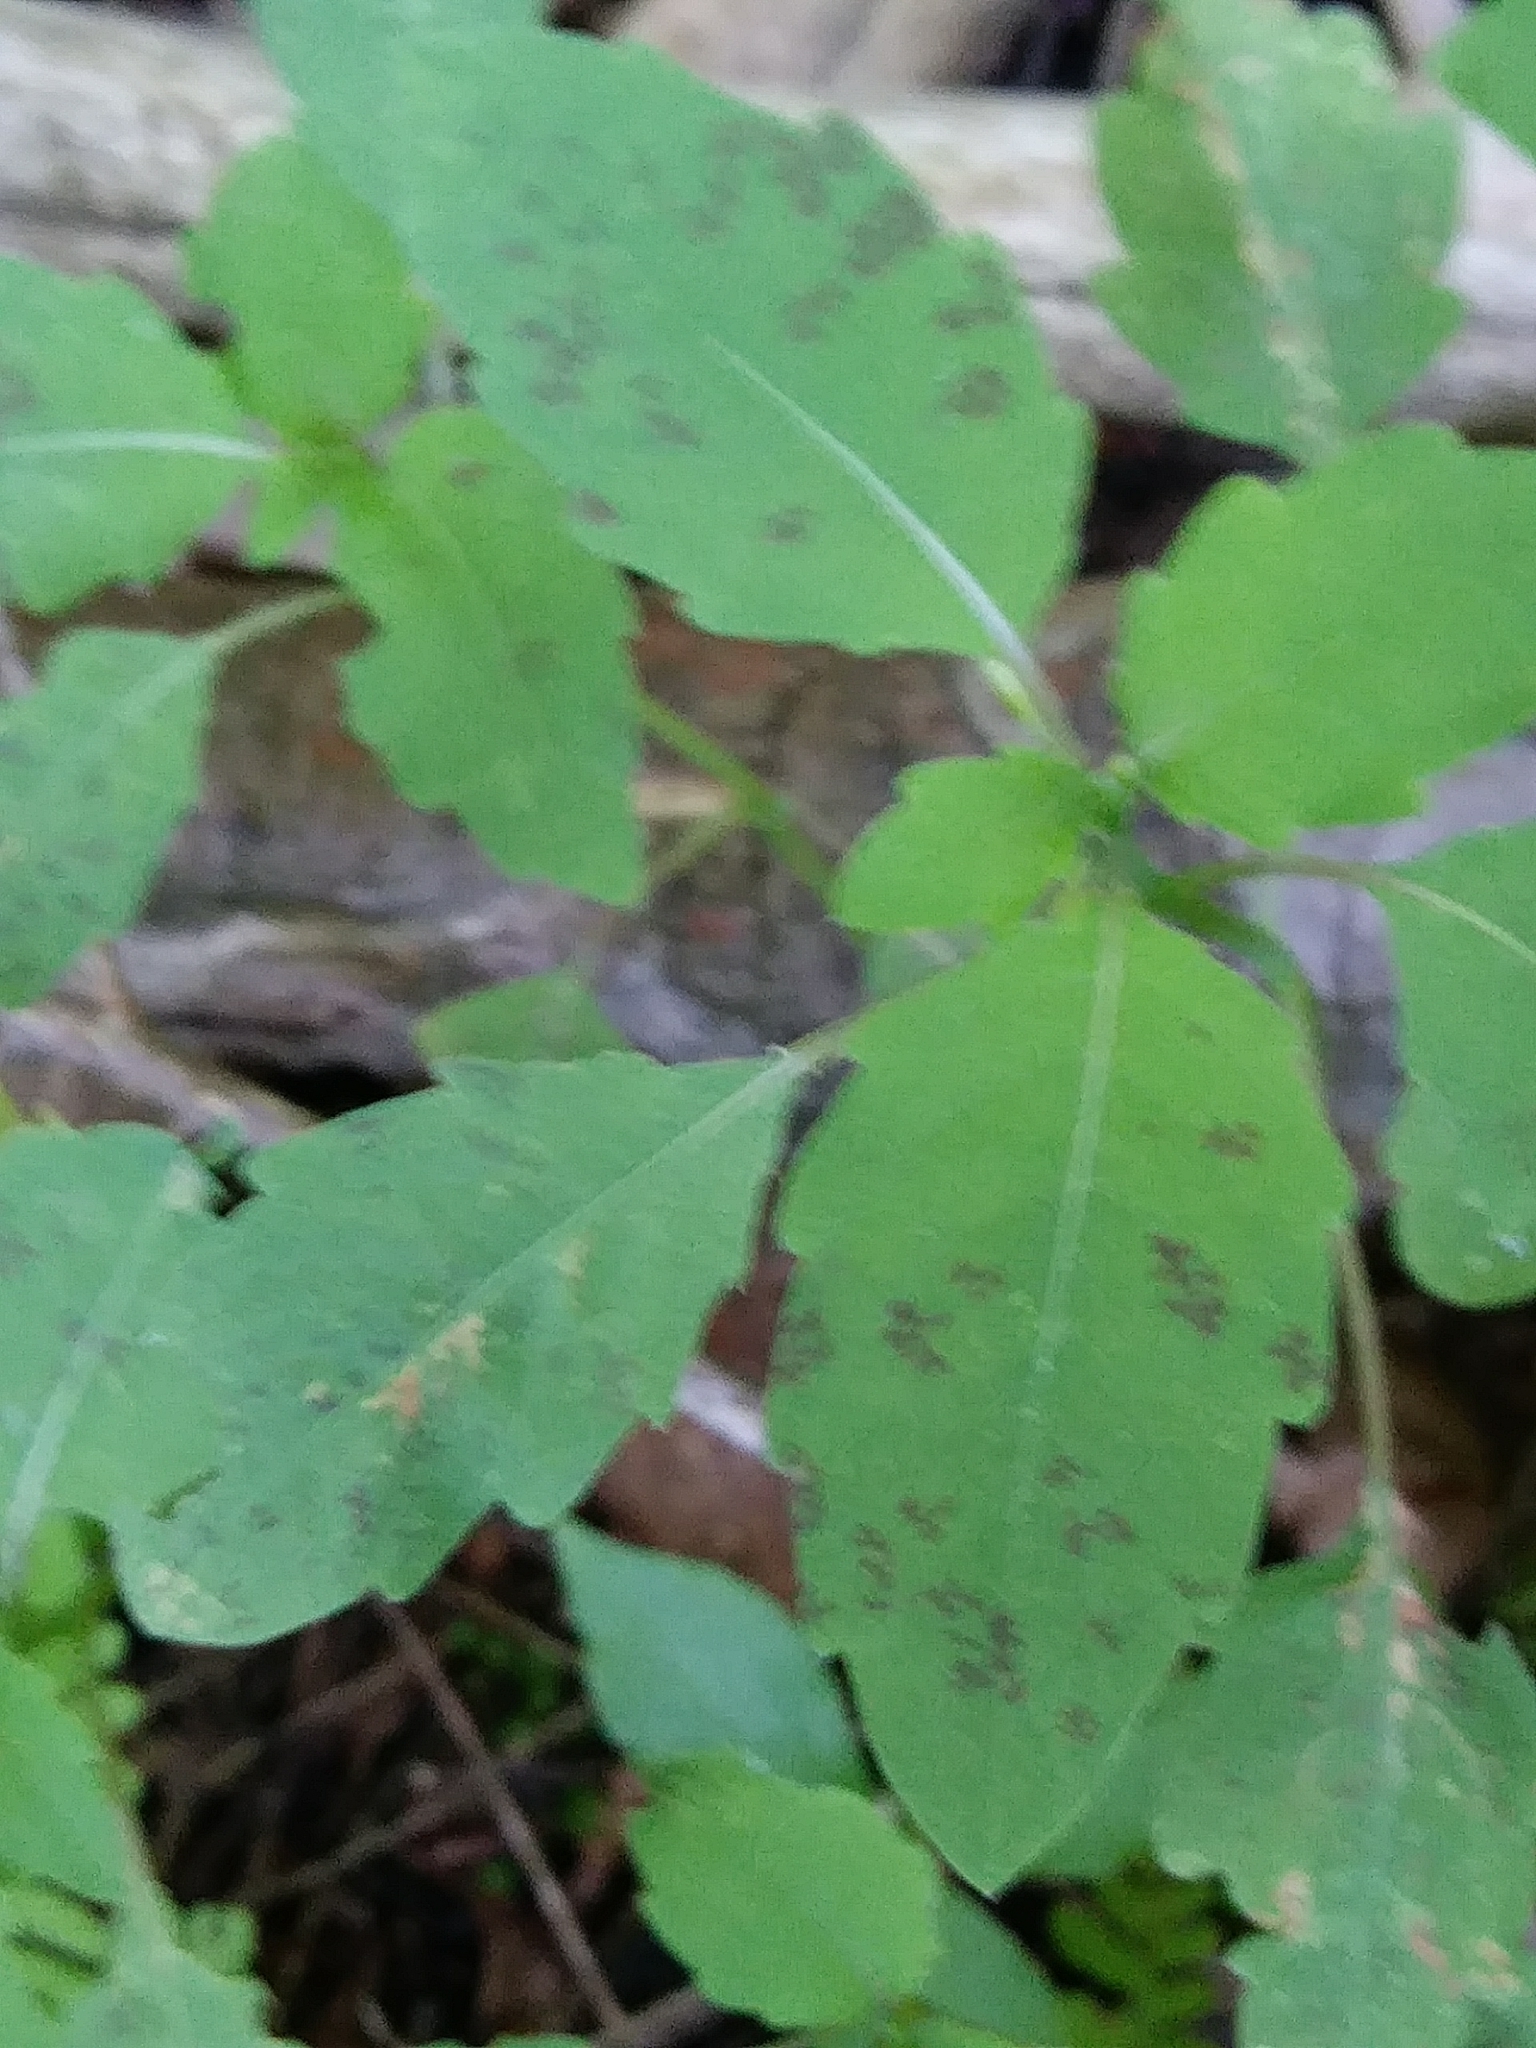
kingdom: Plantae
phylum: Tracheophyta
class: Magnoliopsida
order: Ericales
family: Balsaminaceae
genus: Impatiens
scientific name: Impatiens
